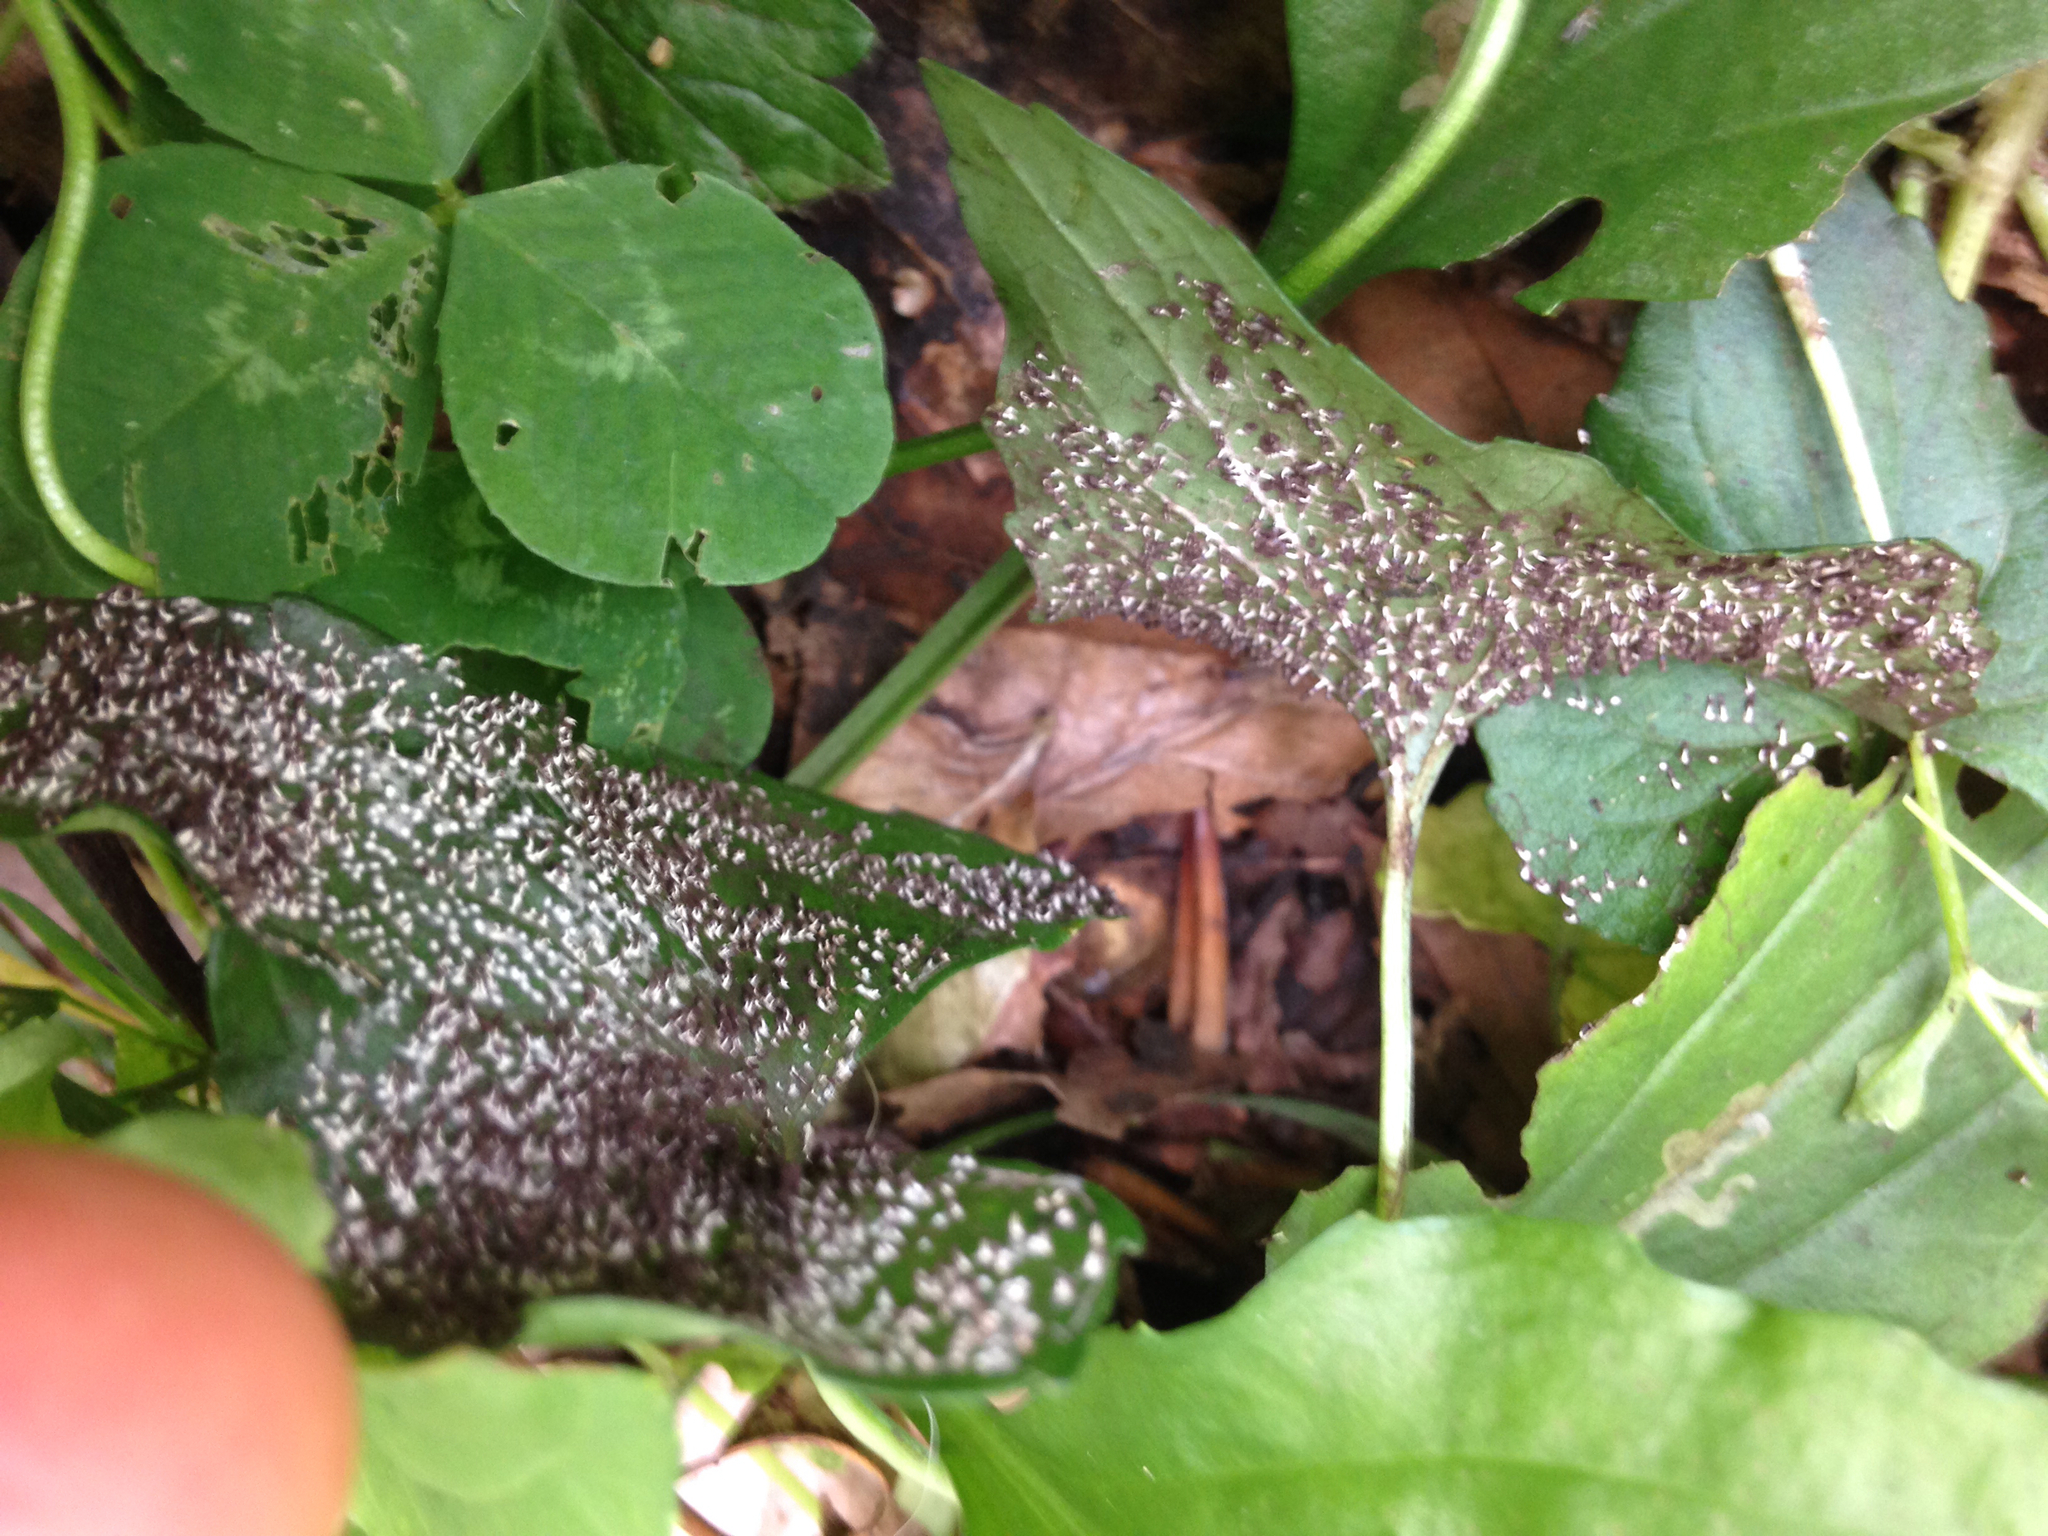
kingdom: Protozoa
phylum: Mycetozoa
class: Myxomycetes
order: Physarales
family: Didymiaceae
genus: Diachea
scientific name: Diachea leucopodia
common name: White-footed slime
